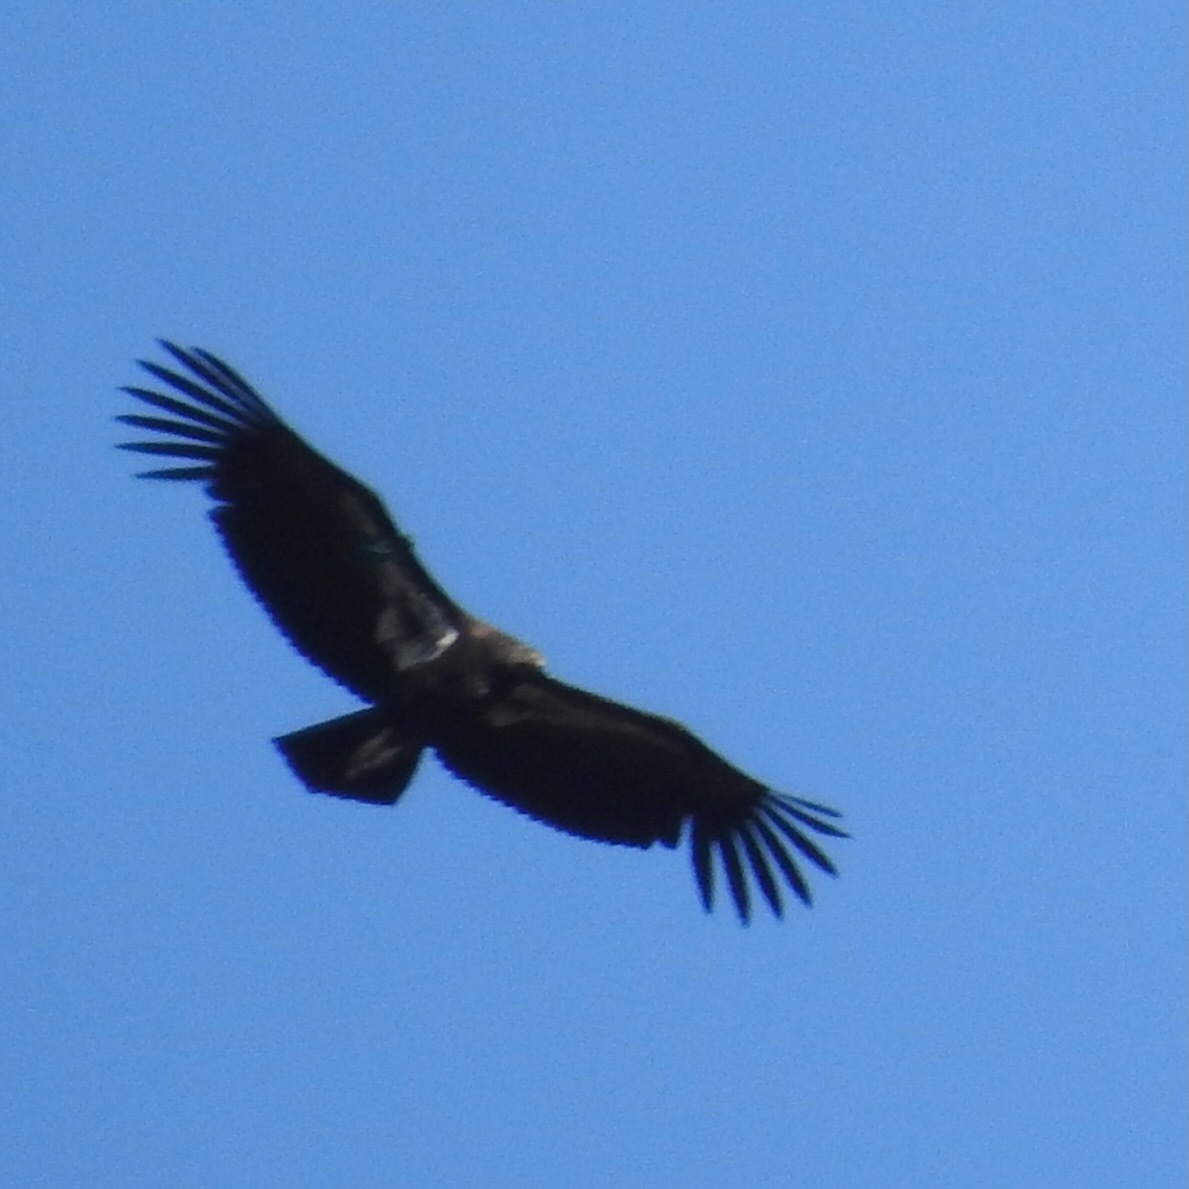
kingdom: Animalia
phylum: Chordata
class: Aves
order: Accipitriformes
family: Cathartidae
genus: Gymnogyps
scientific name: Gymnogyps californianus
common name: California condor
